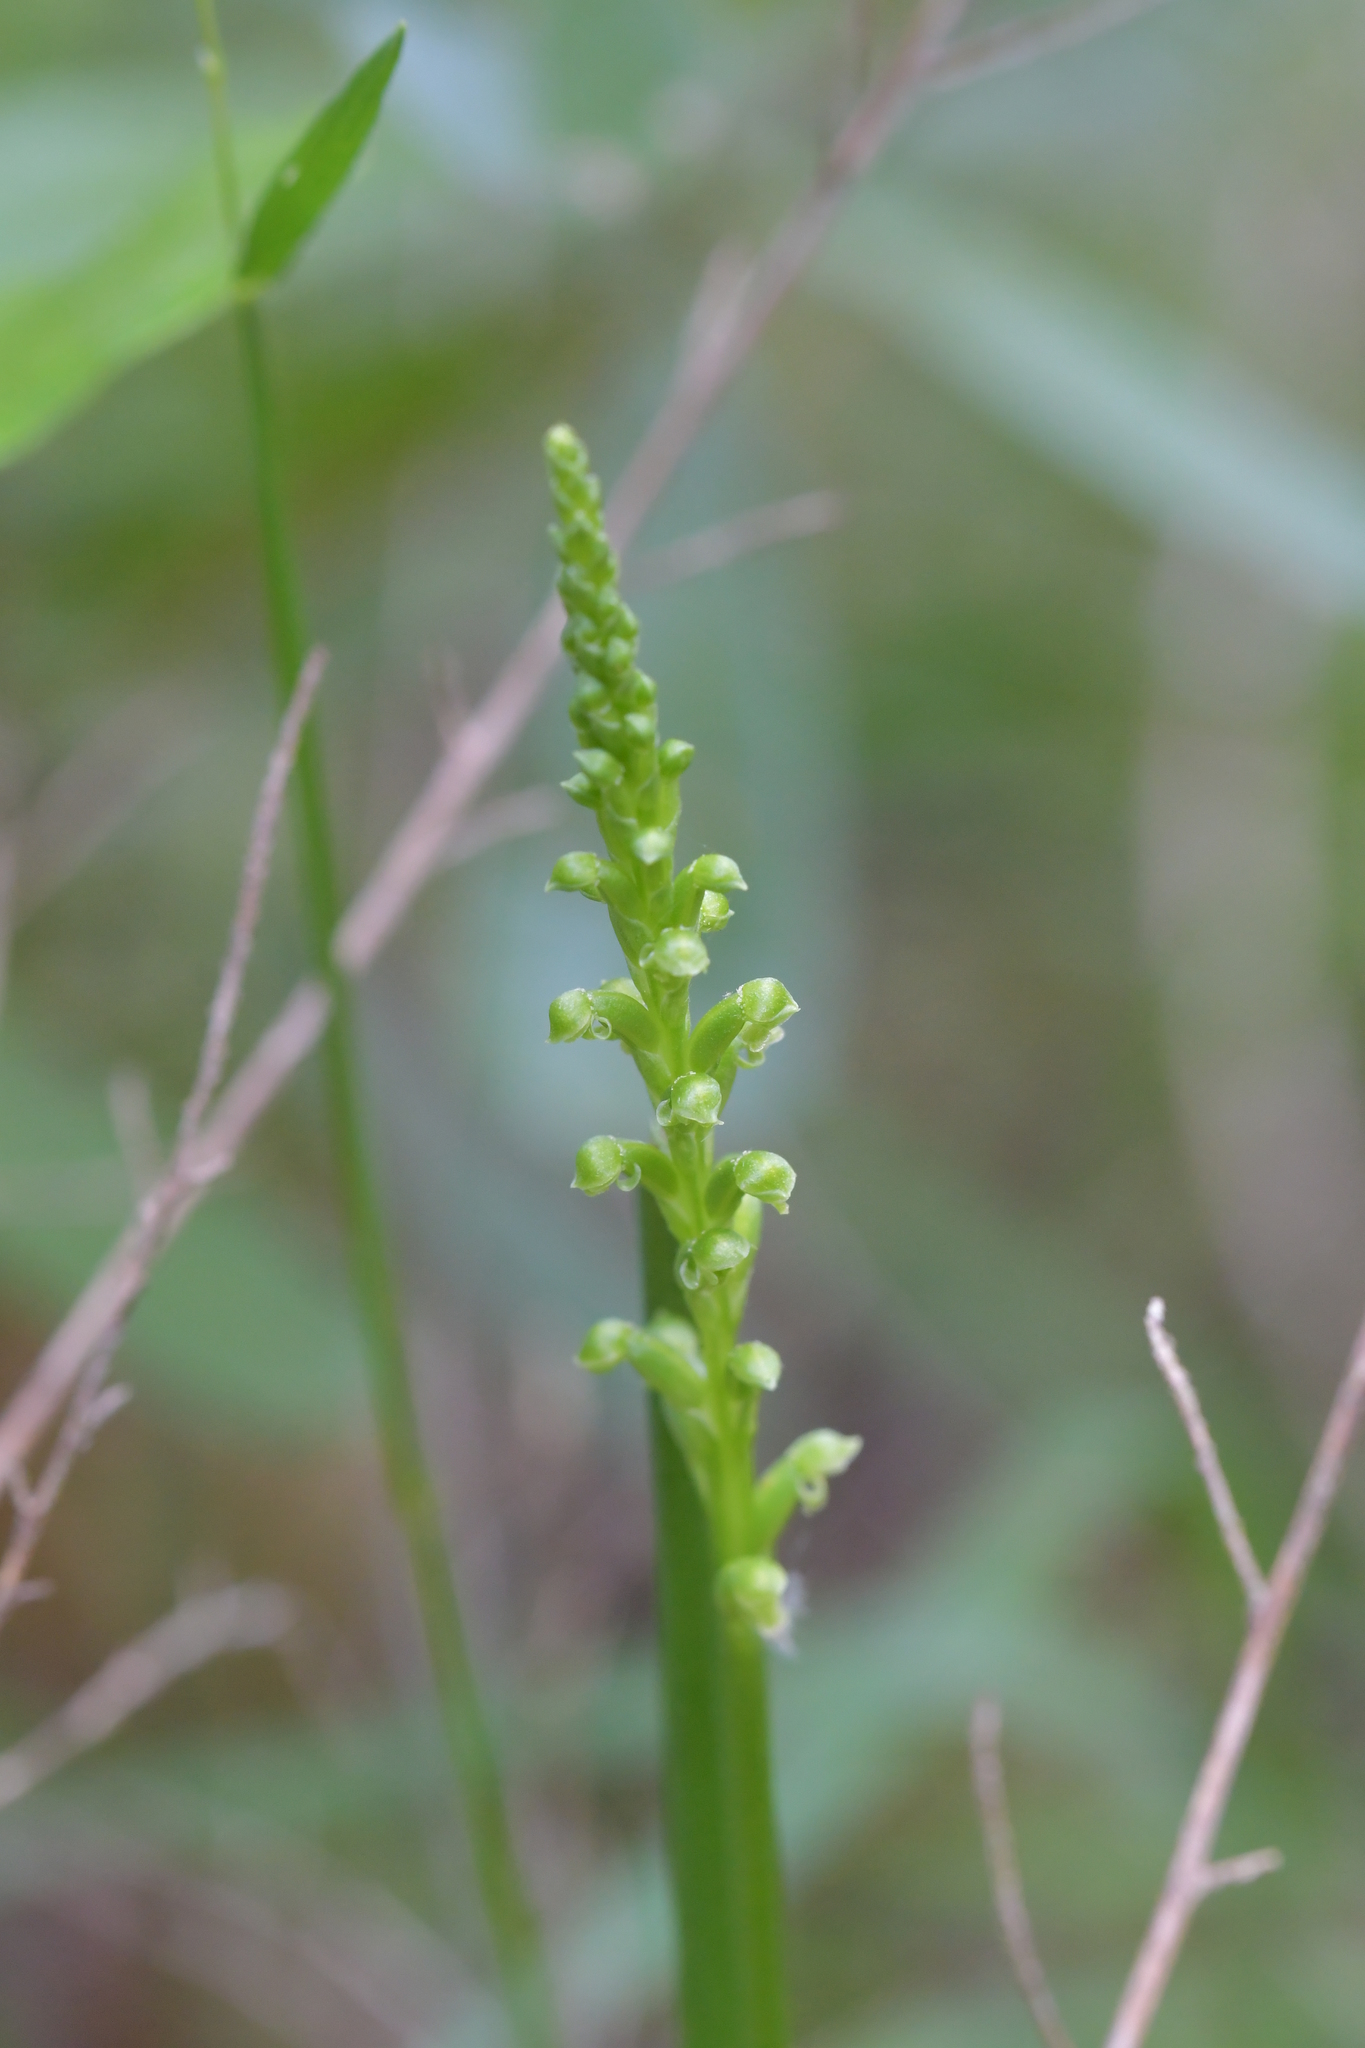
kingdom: Plantae
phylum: Tracheophyta
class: Liliopsida
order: Asparagales
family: Orchidaceae
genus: Microtis
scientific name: Microtis unifolia
